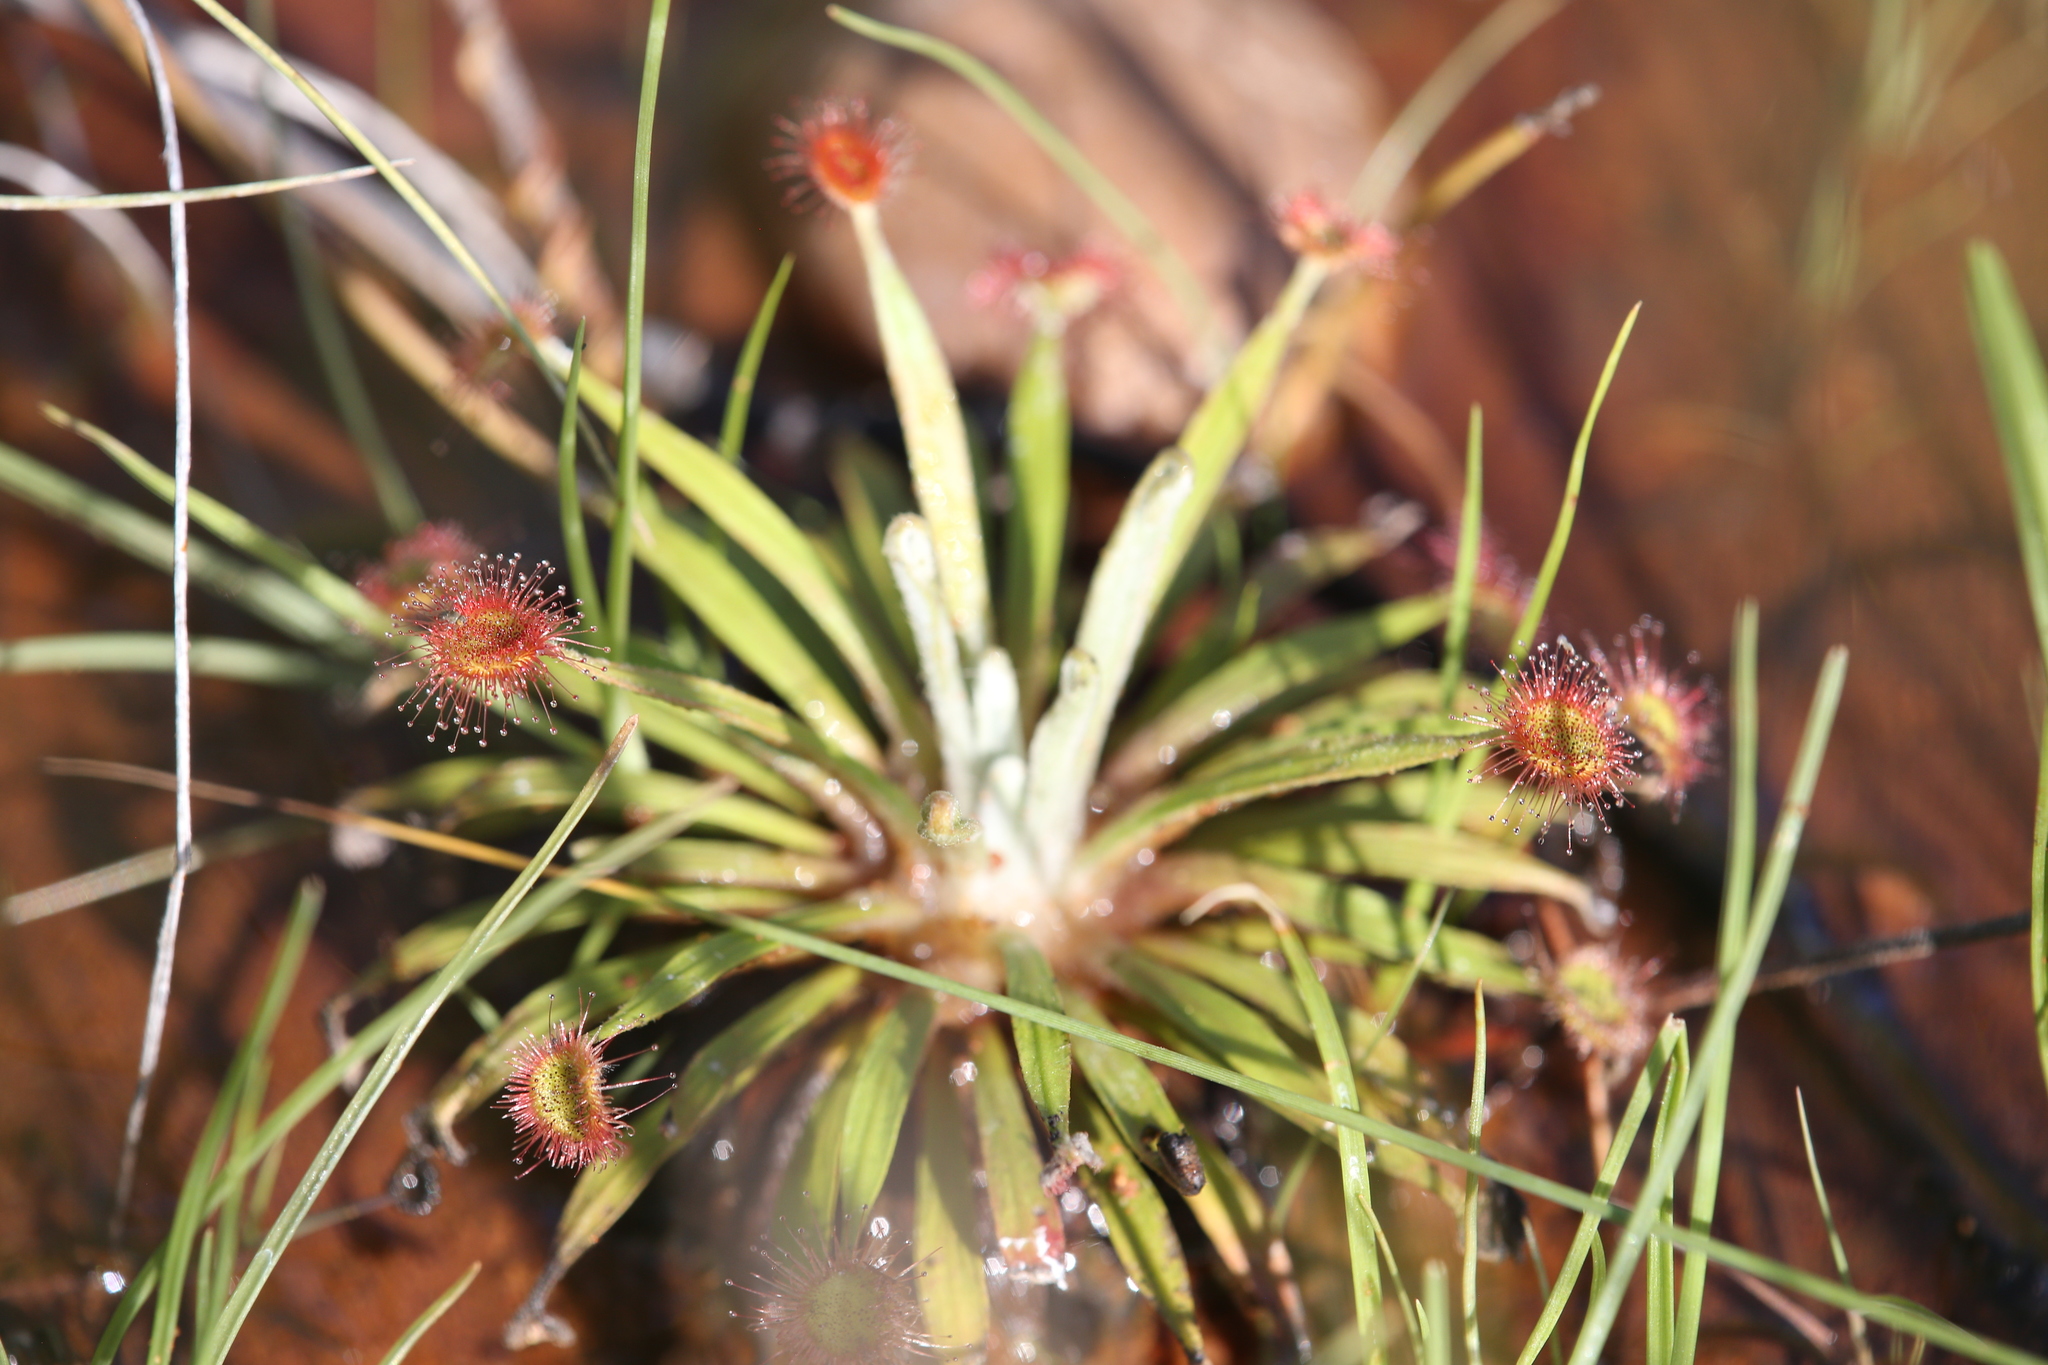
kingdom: Plantae
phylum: Tracheophyta
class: Magnoliopsida
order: Caryophyllales
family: Droseraceae
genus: Drosera
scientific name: Drosera ordensis
